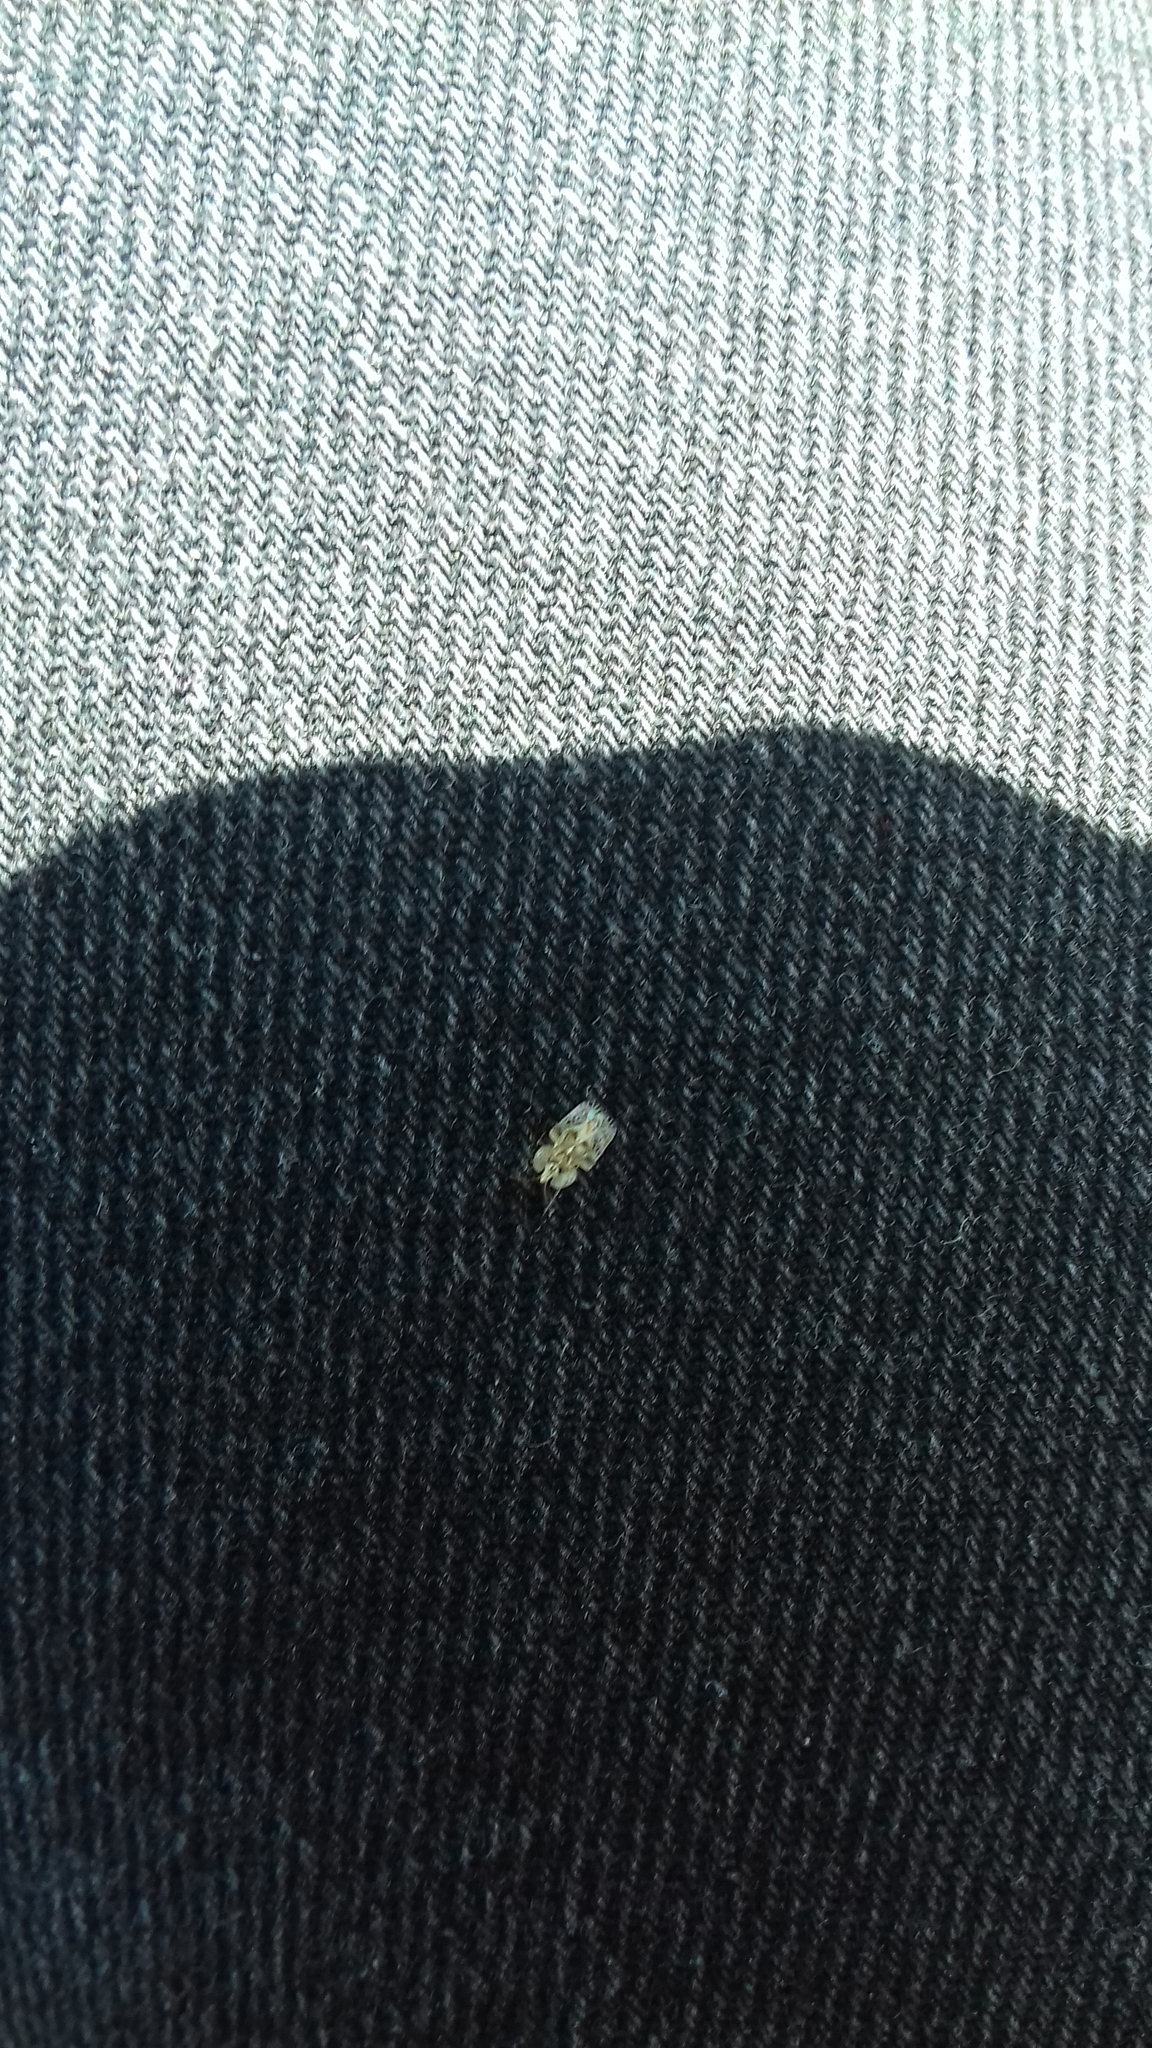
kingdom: Animalia
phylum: Arthropoda
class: Insecta
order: Hemiptera
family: Tingidae
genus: Corythucha
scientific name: Corythucha ciliata
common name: Sycamore lace bug
